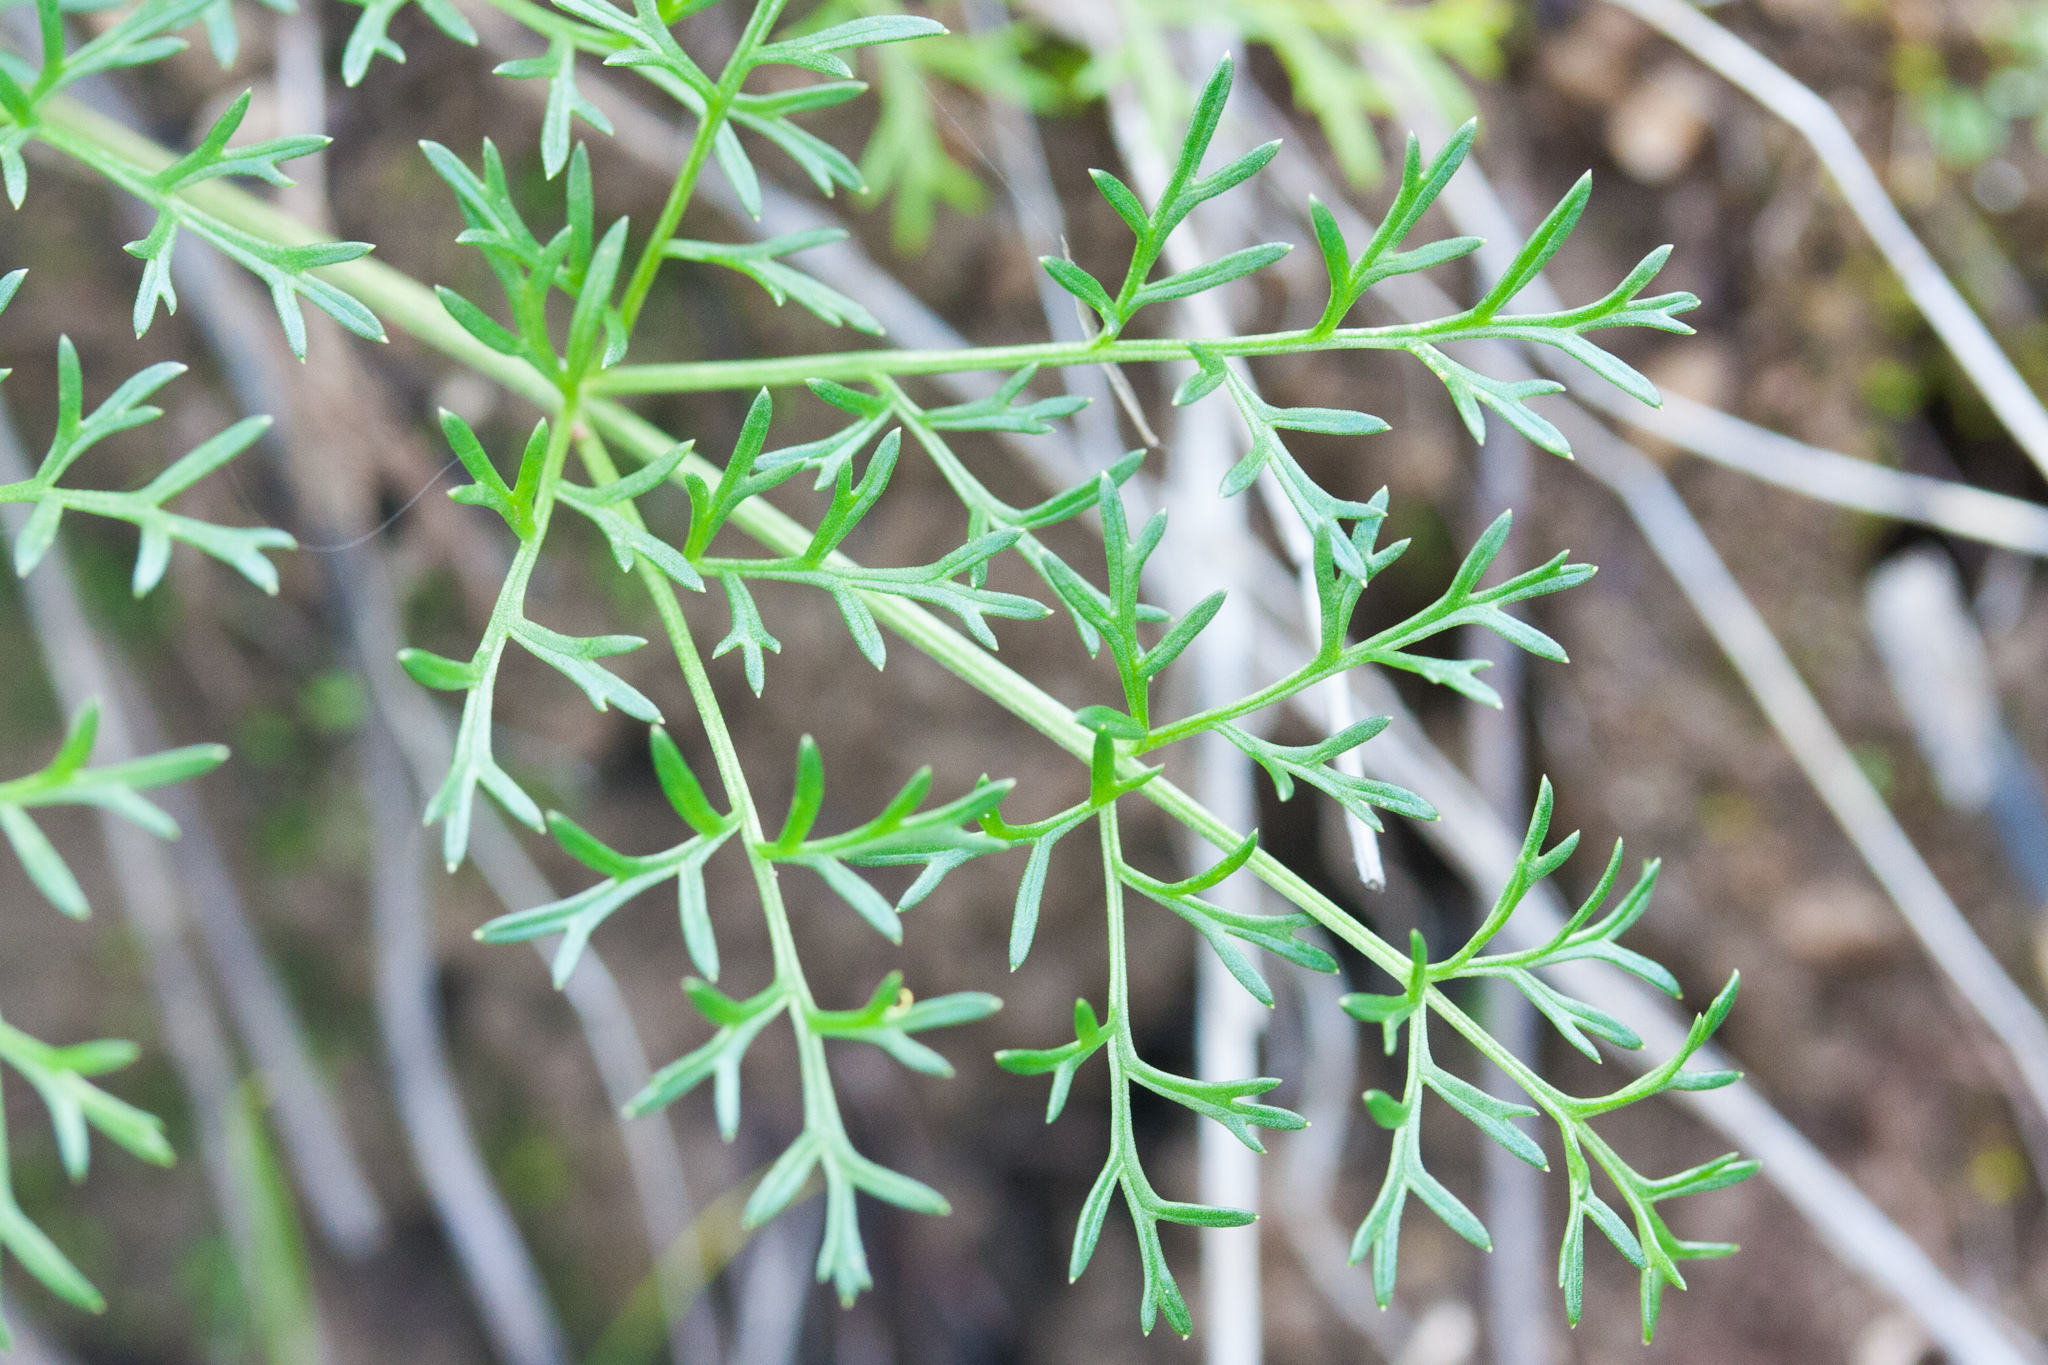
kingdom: Plantae
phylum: Tracheophyta
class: Magnoliopsida
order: Apiales
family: Apiaceae
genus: Lomatium
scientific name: Lomatium utriculatum
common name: Fine-leaf desert-parsley
